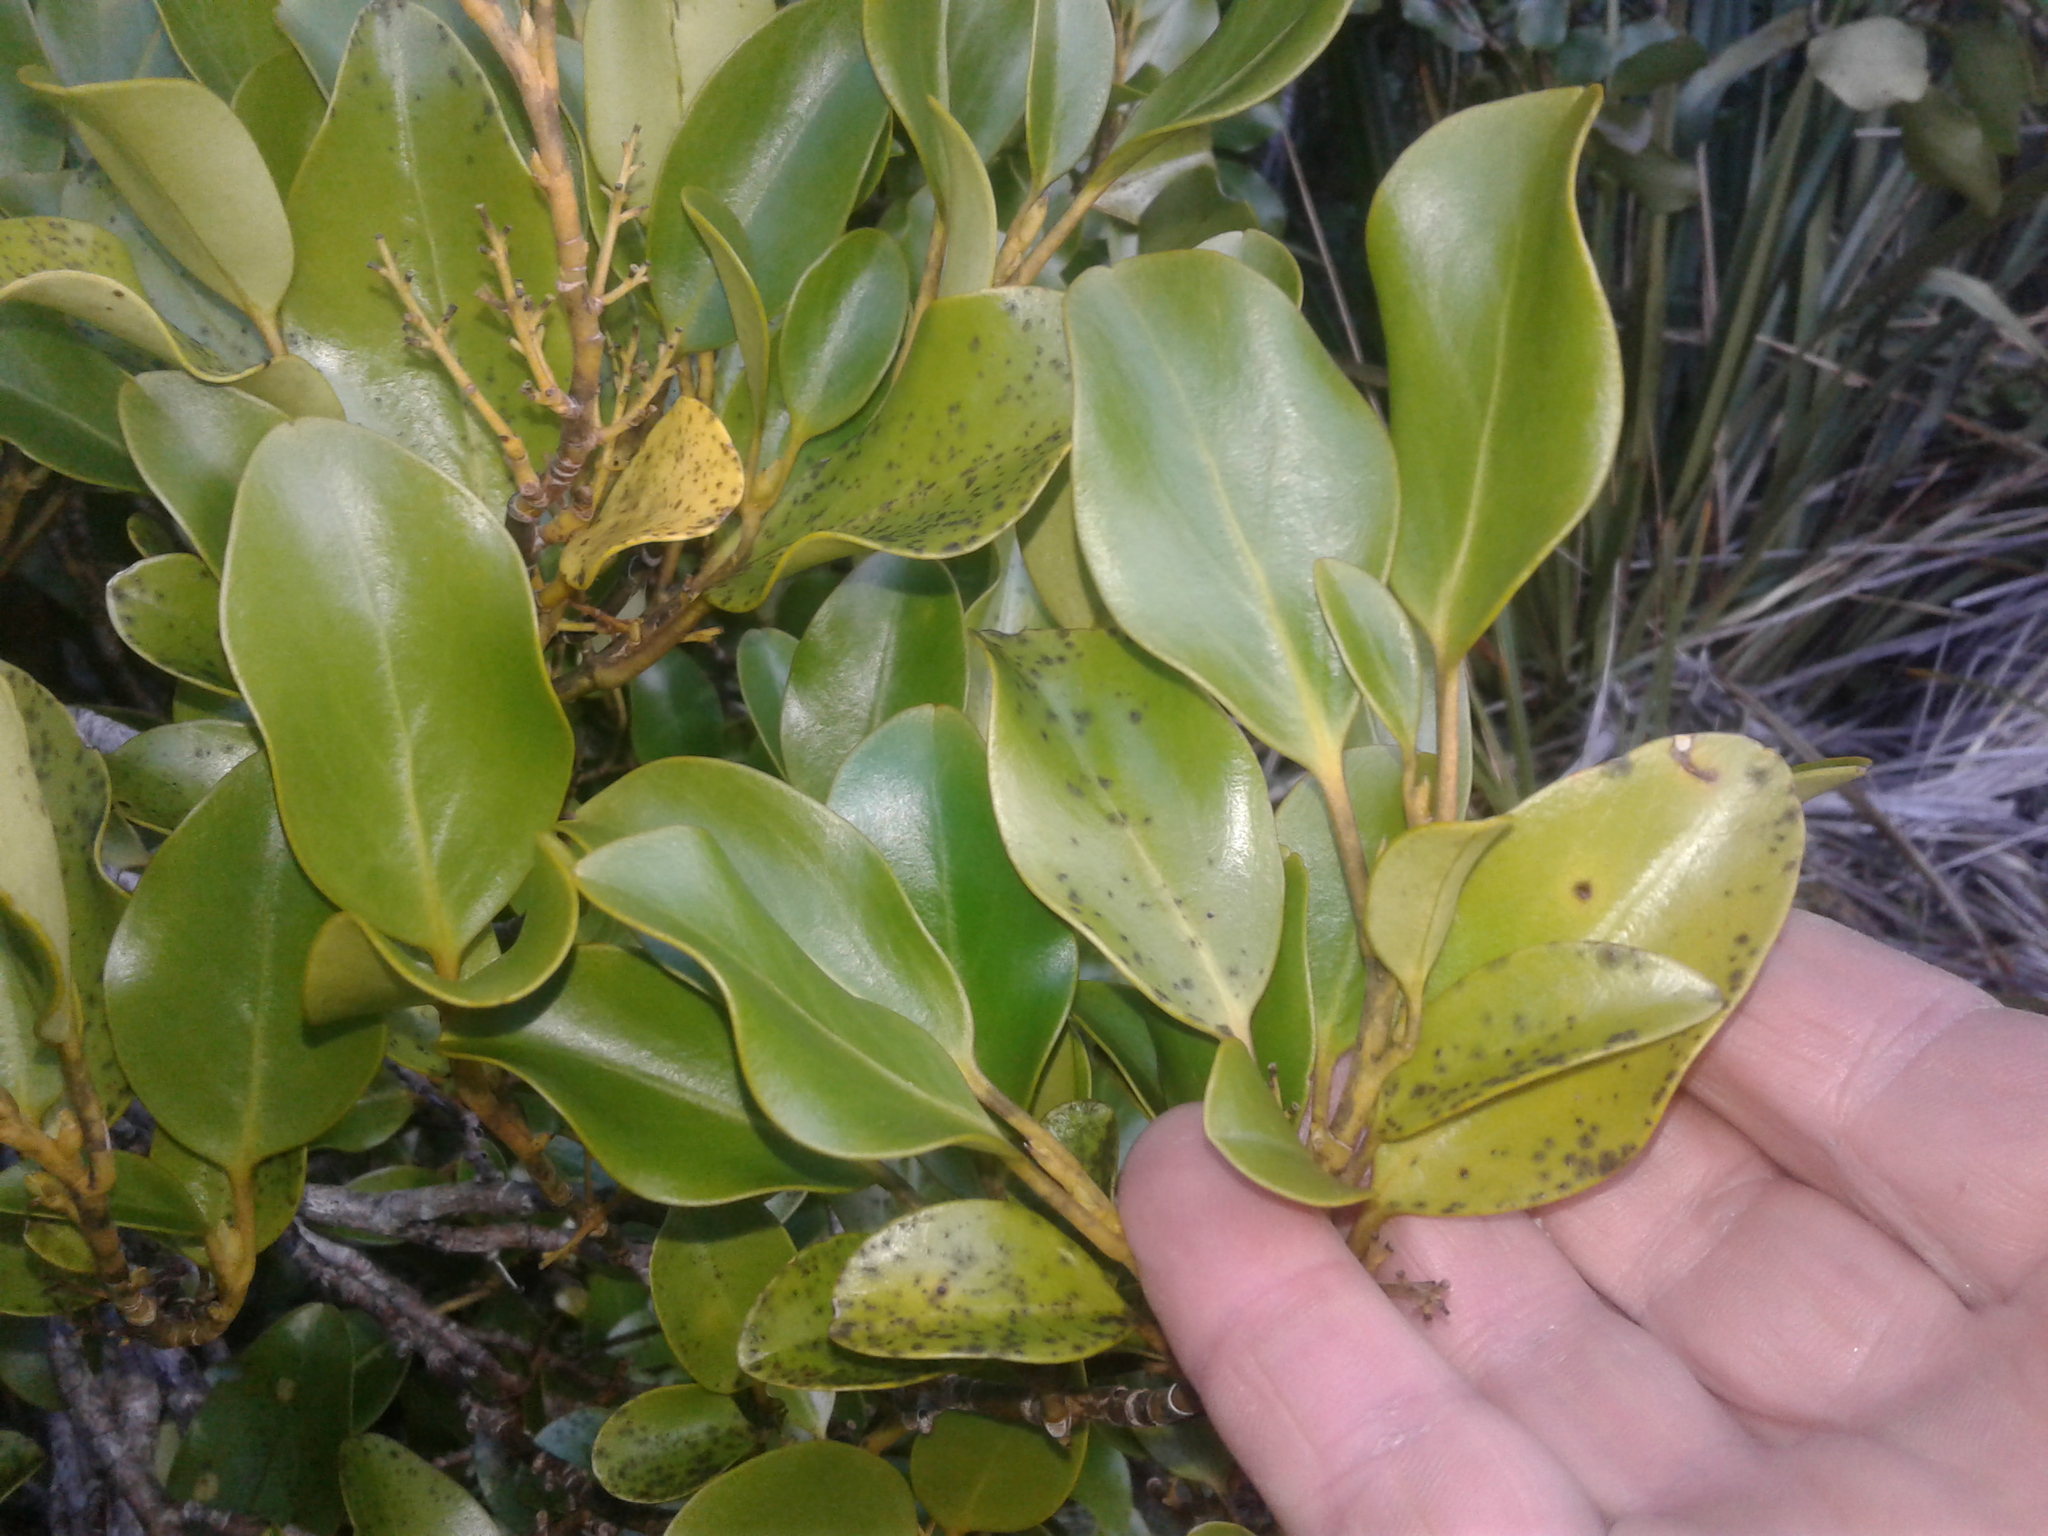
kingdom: Plantae
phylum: Tracheophyta
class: Magnoliopsida
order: Apiales
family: Griseliniaceae
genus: Griselinia
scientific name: Griselinia littoralis
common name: New zealand broadleaf
